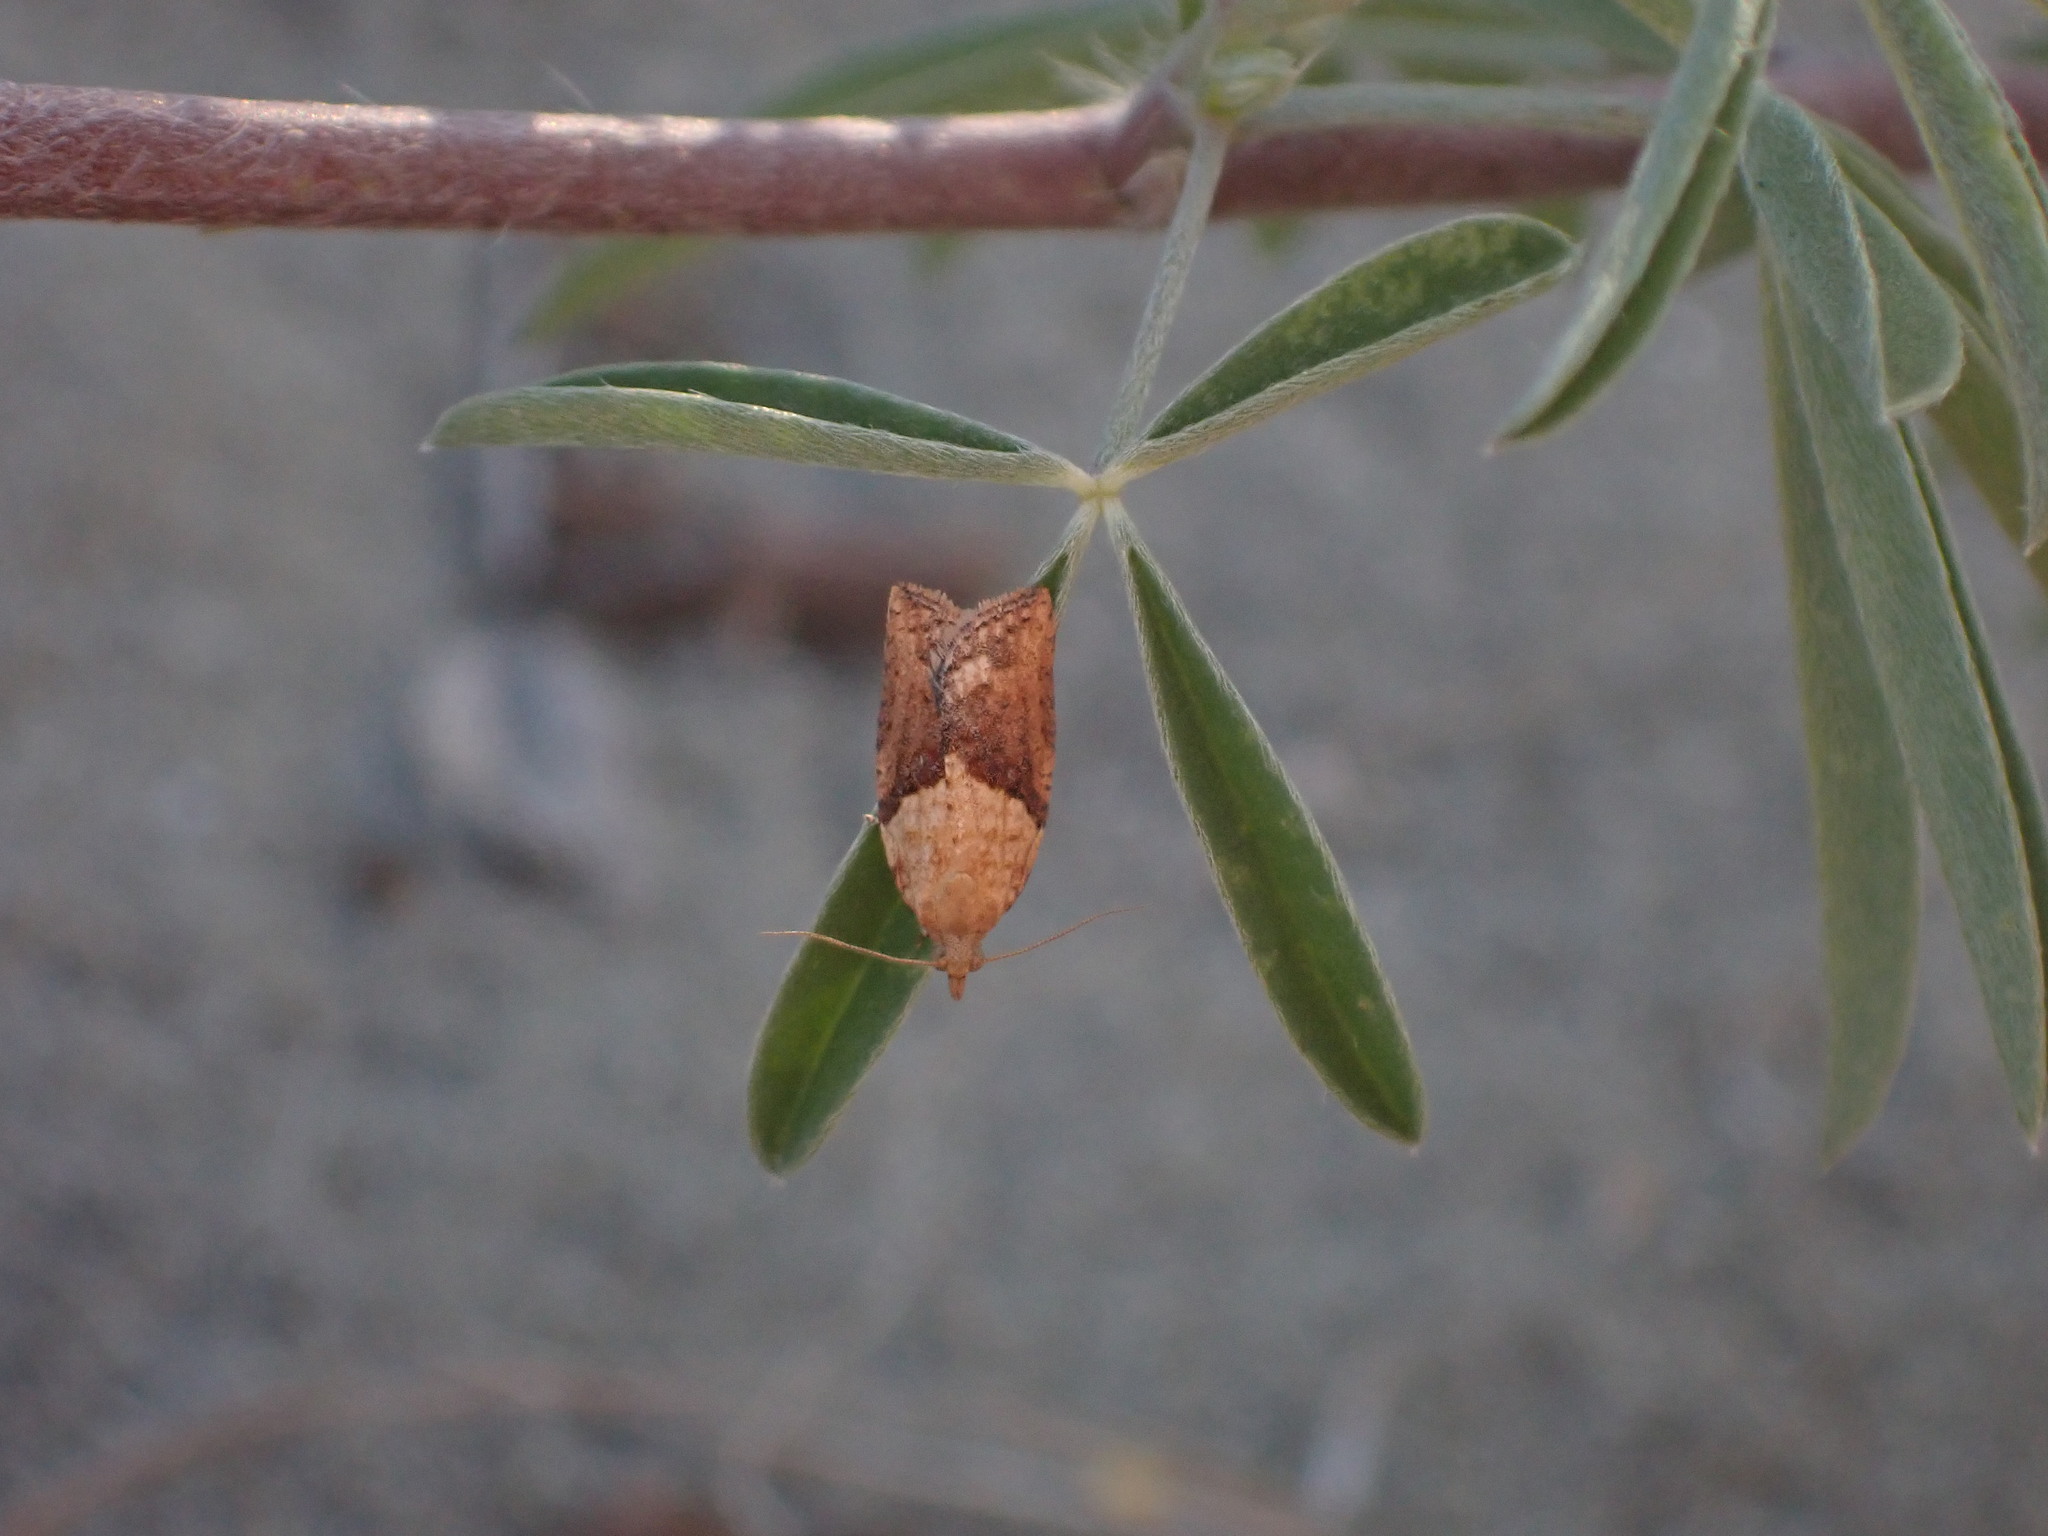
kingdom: Animalia
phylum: Arthropoda
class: Insecta
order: Lepidoptera
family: Tortricidae
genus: Epiphyas
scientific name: Epiphyas postvittana
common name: Light brown apple moth
